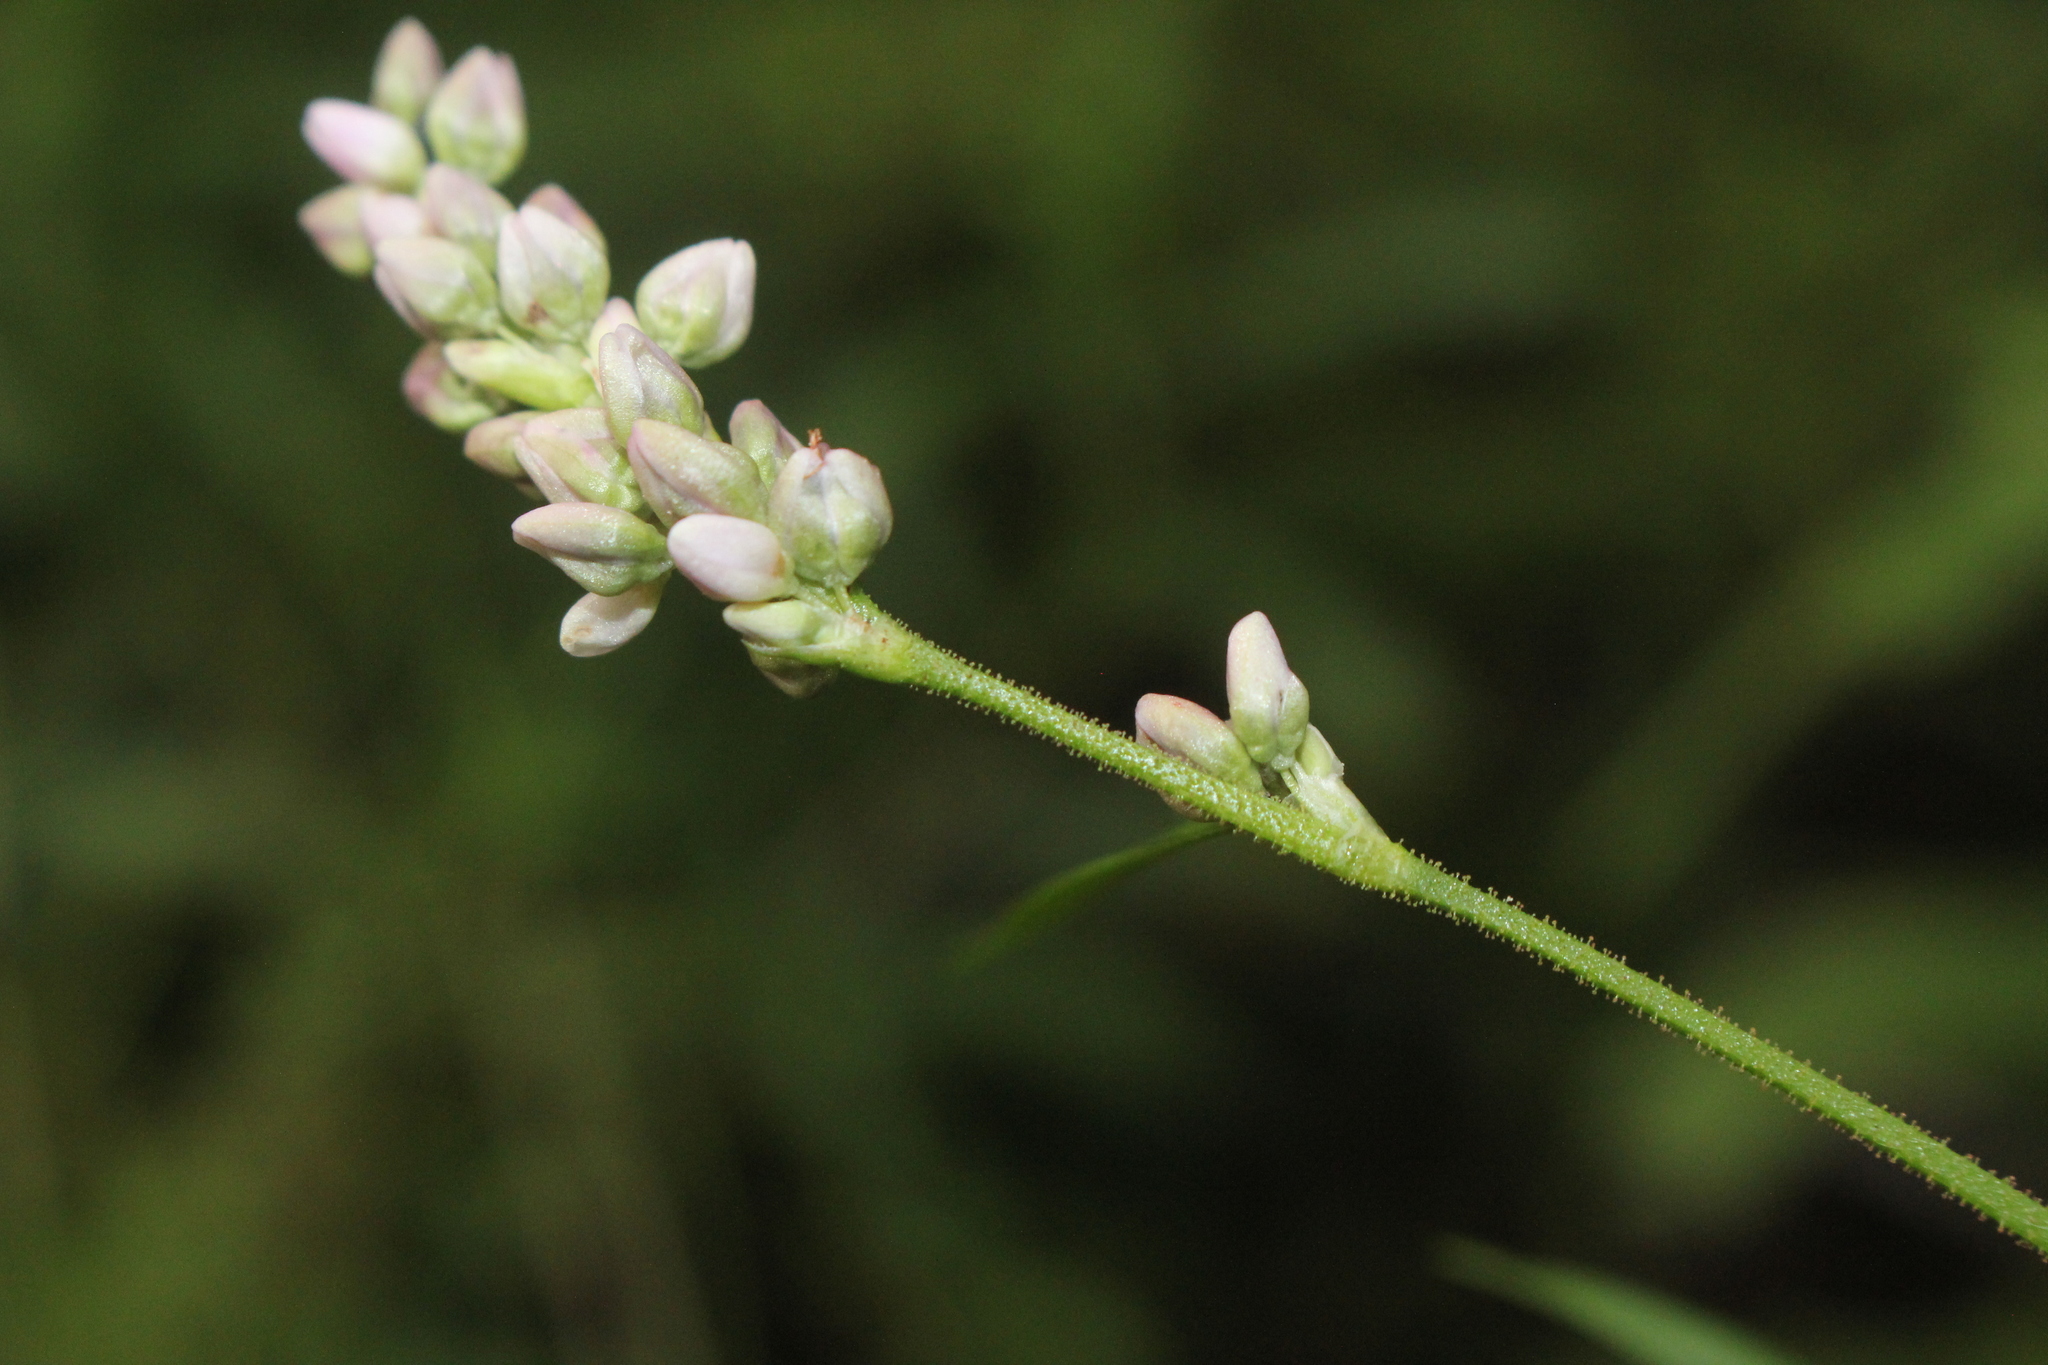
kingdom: Plantae
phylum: Tracheophyta
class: Magnoliopsida
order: Caryophyllales
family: Polygonaceae
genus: Persicaria
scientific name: Persicaria pensylvanica
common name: Pinkweed
